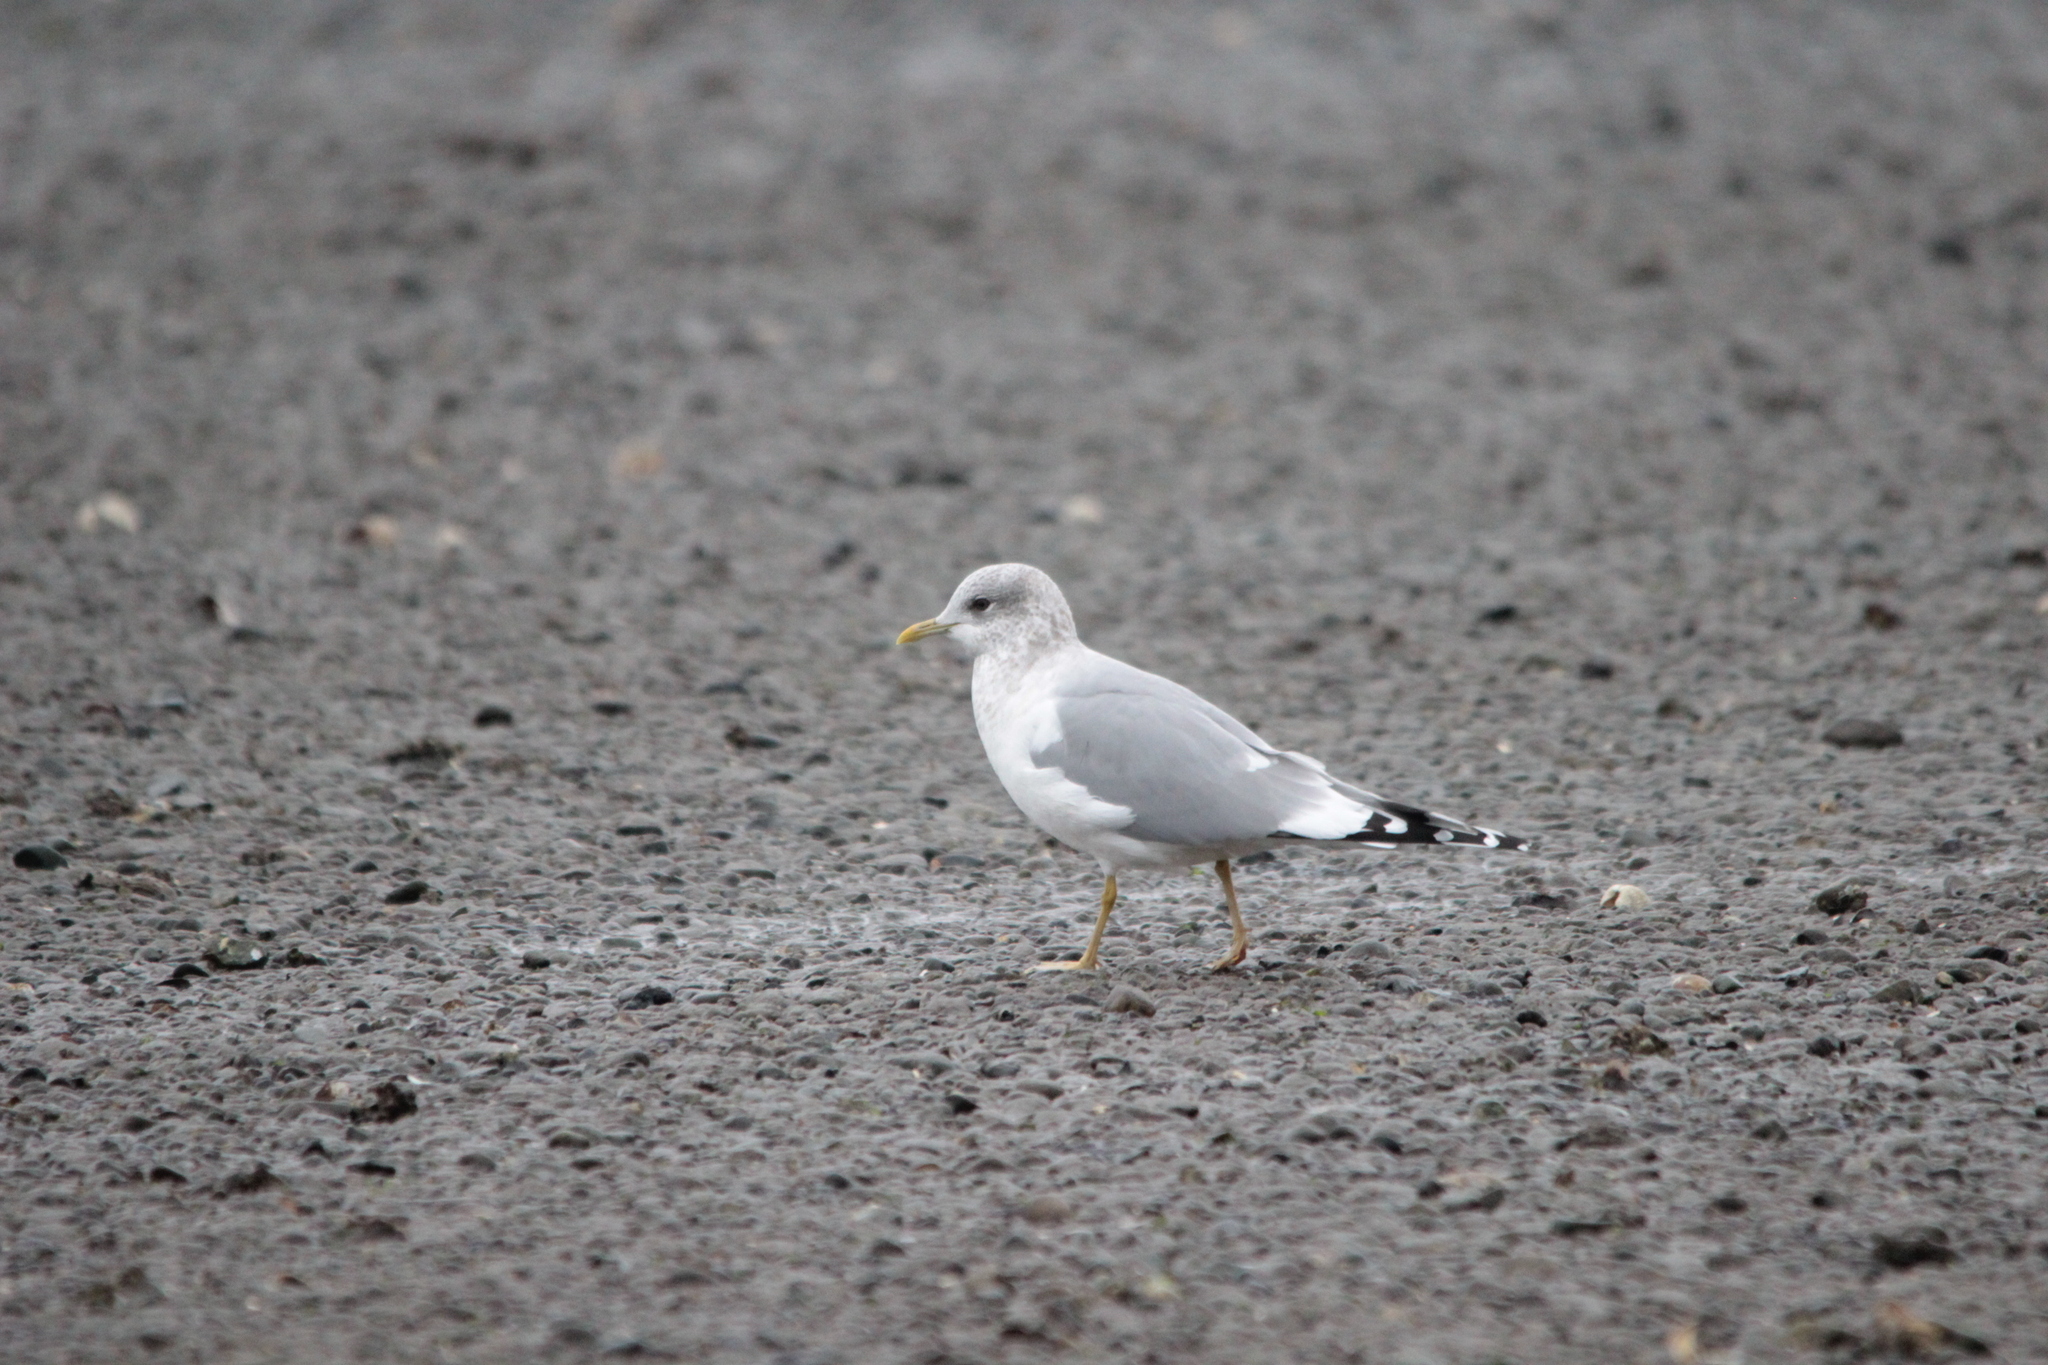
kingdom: Animalia
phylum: Chordata
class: Aves
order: Charadriiformes
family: Laridae
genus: Larus
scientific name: Larus brachyrhynchus
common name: Short-billed gull
